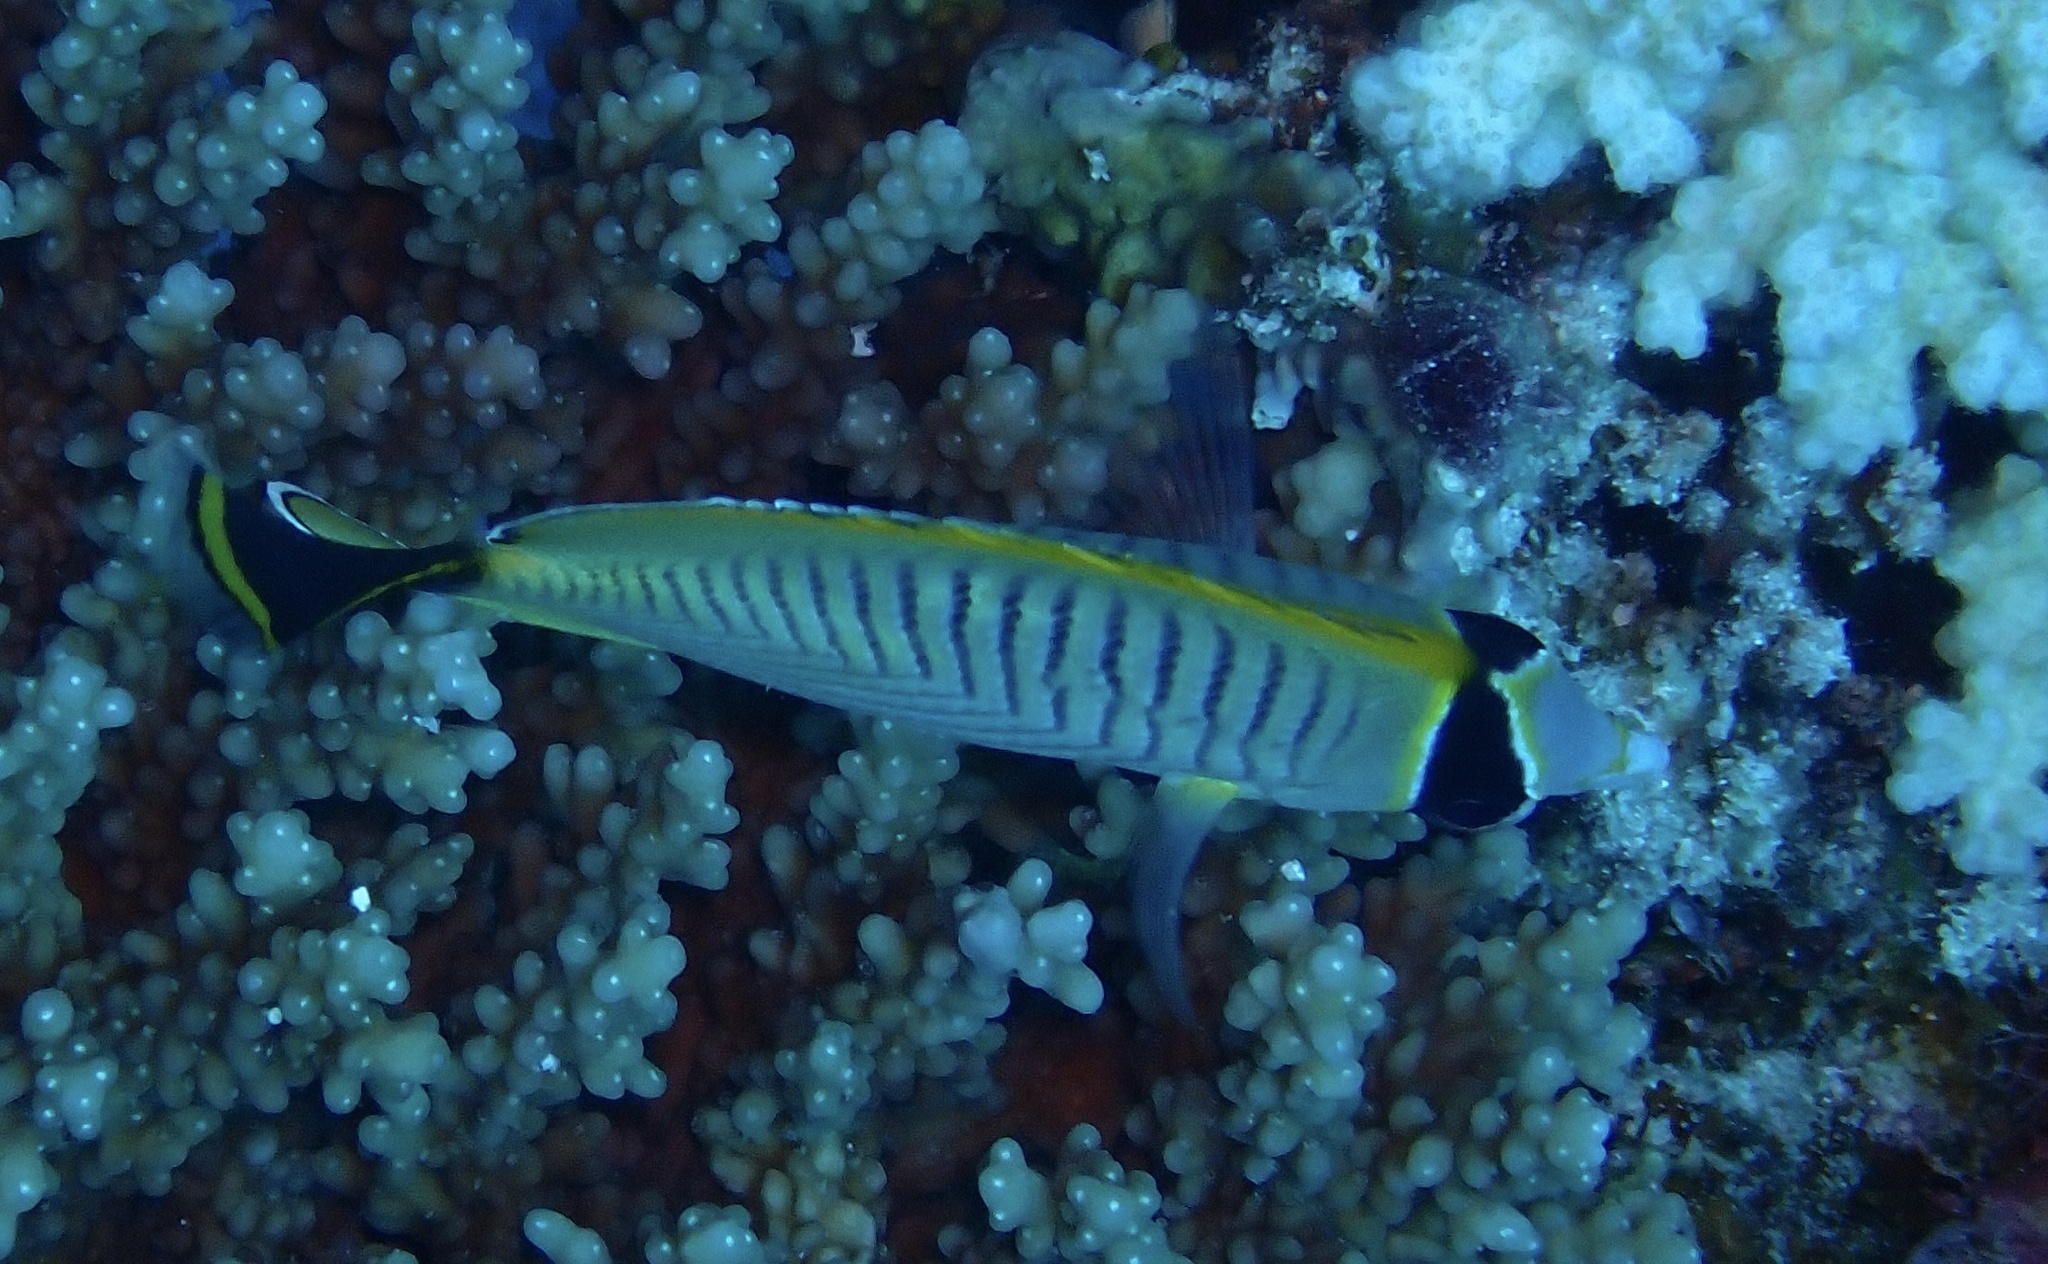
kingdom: Animalia
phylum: Chordata
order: Perciformes
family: Chaetodontidae
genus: Chaetodon
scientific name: Chaetodon trifascialis
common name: Chevroned butterflyfish
